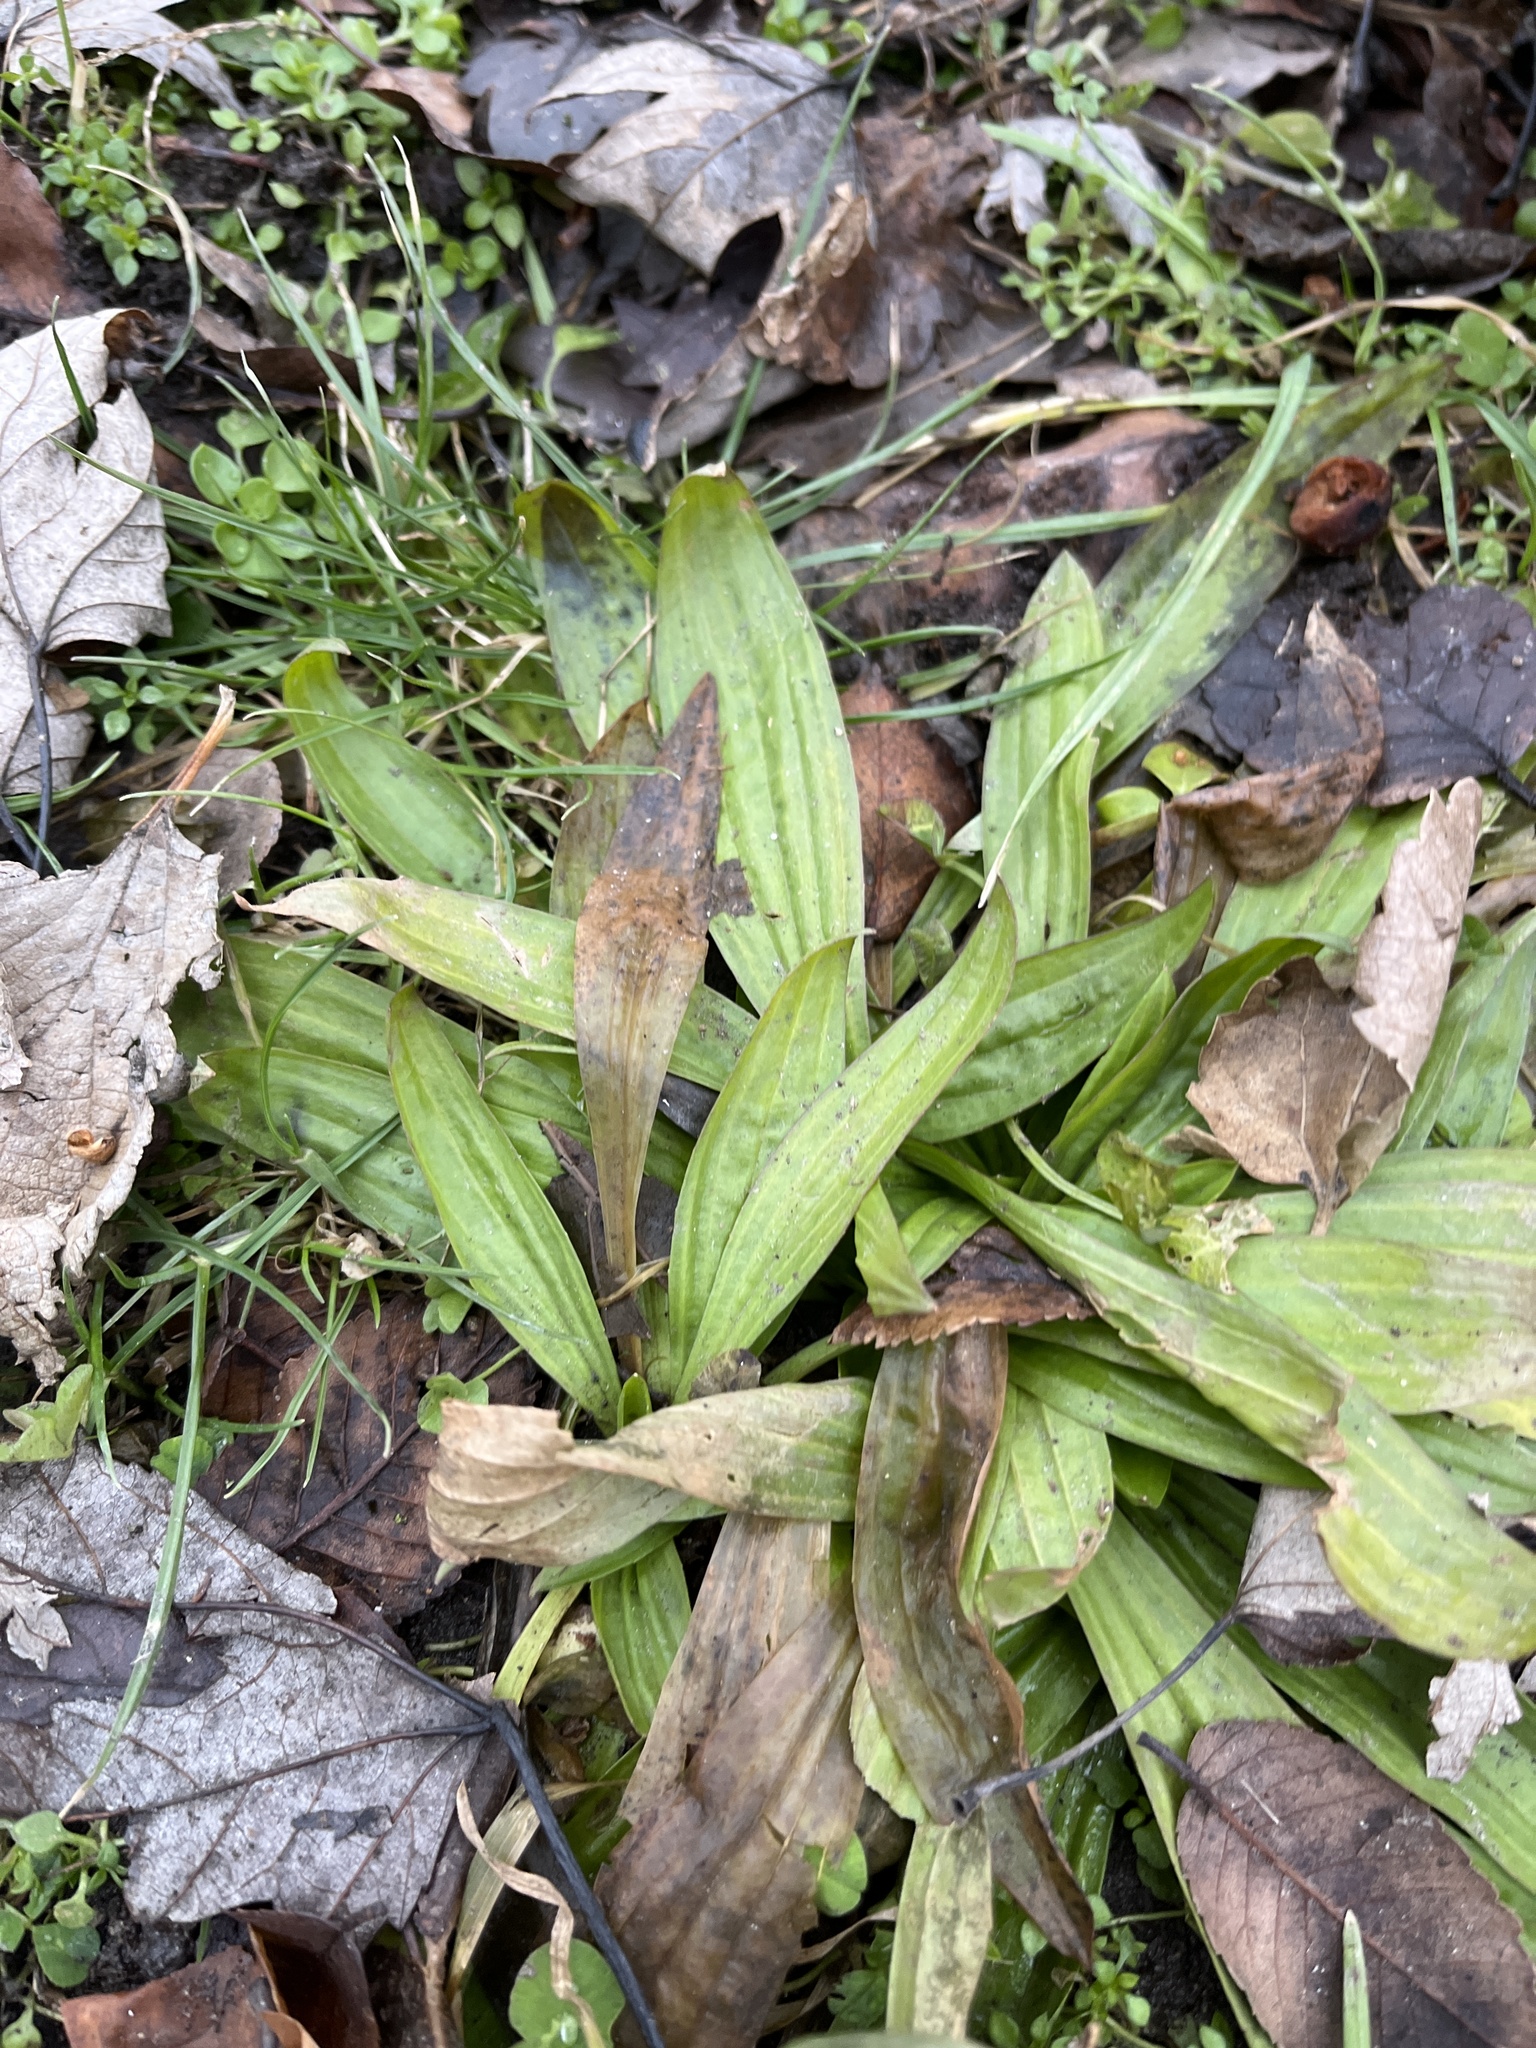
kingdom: Plantae
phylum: Tracheophyta
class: Magnoliopsida
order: Lamiales
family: Plantaginaceae
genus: Plantago
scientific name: Plantago lanceolata
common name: Ribwort plantain
